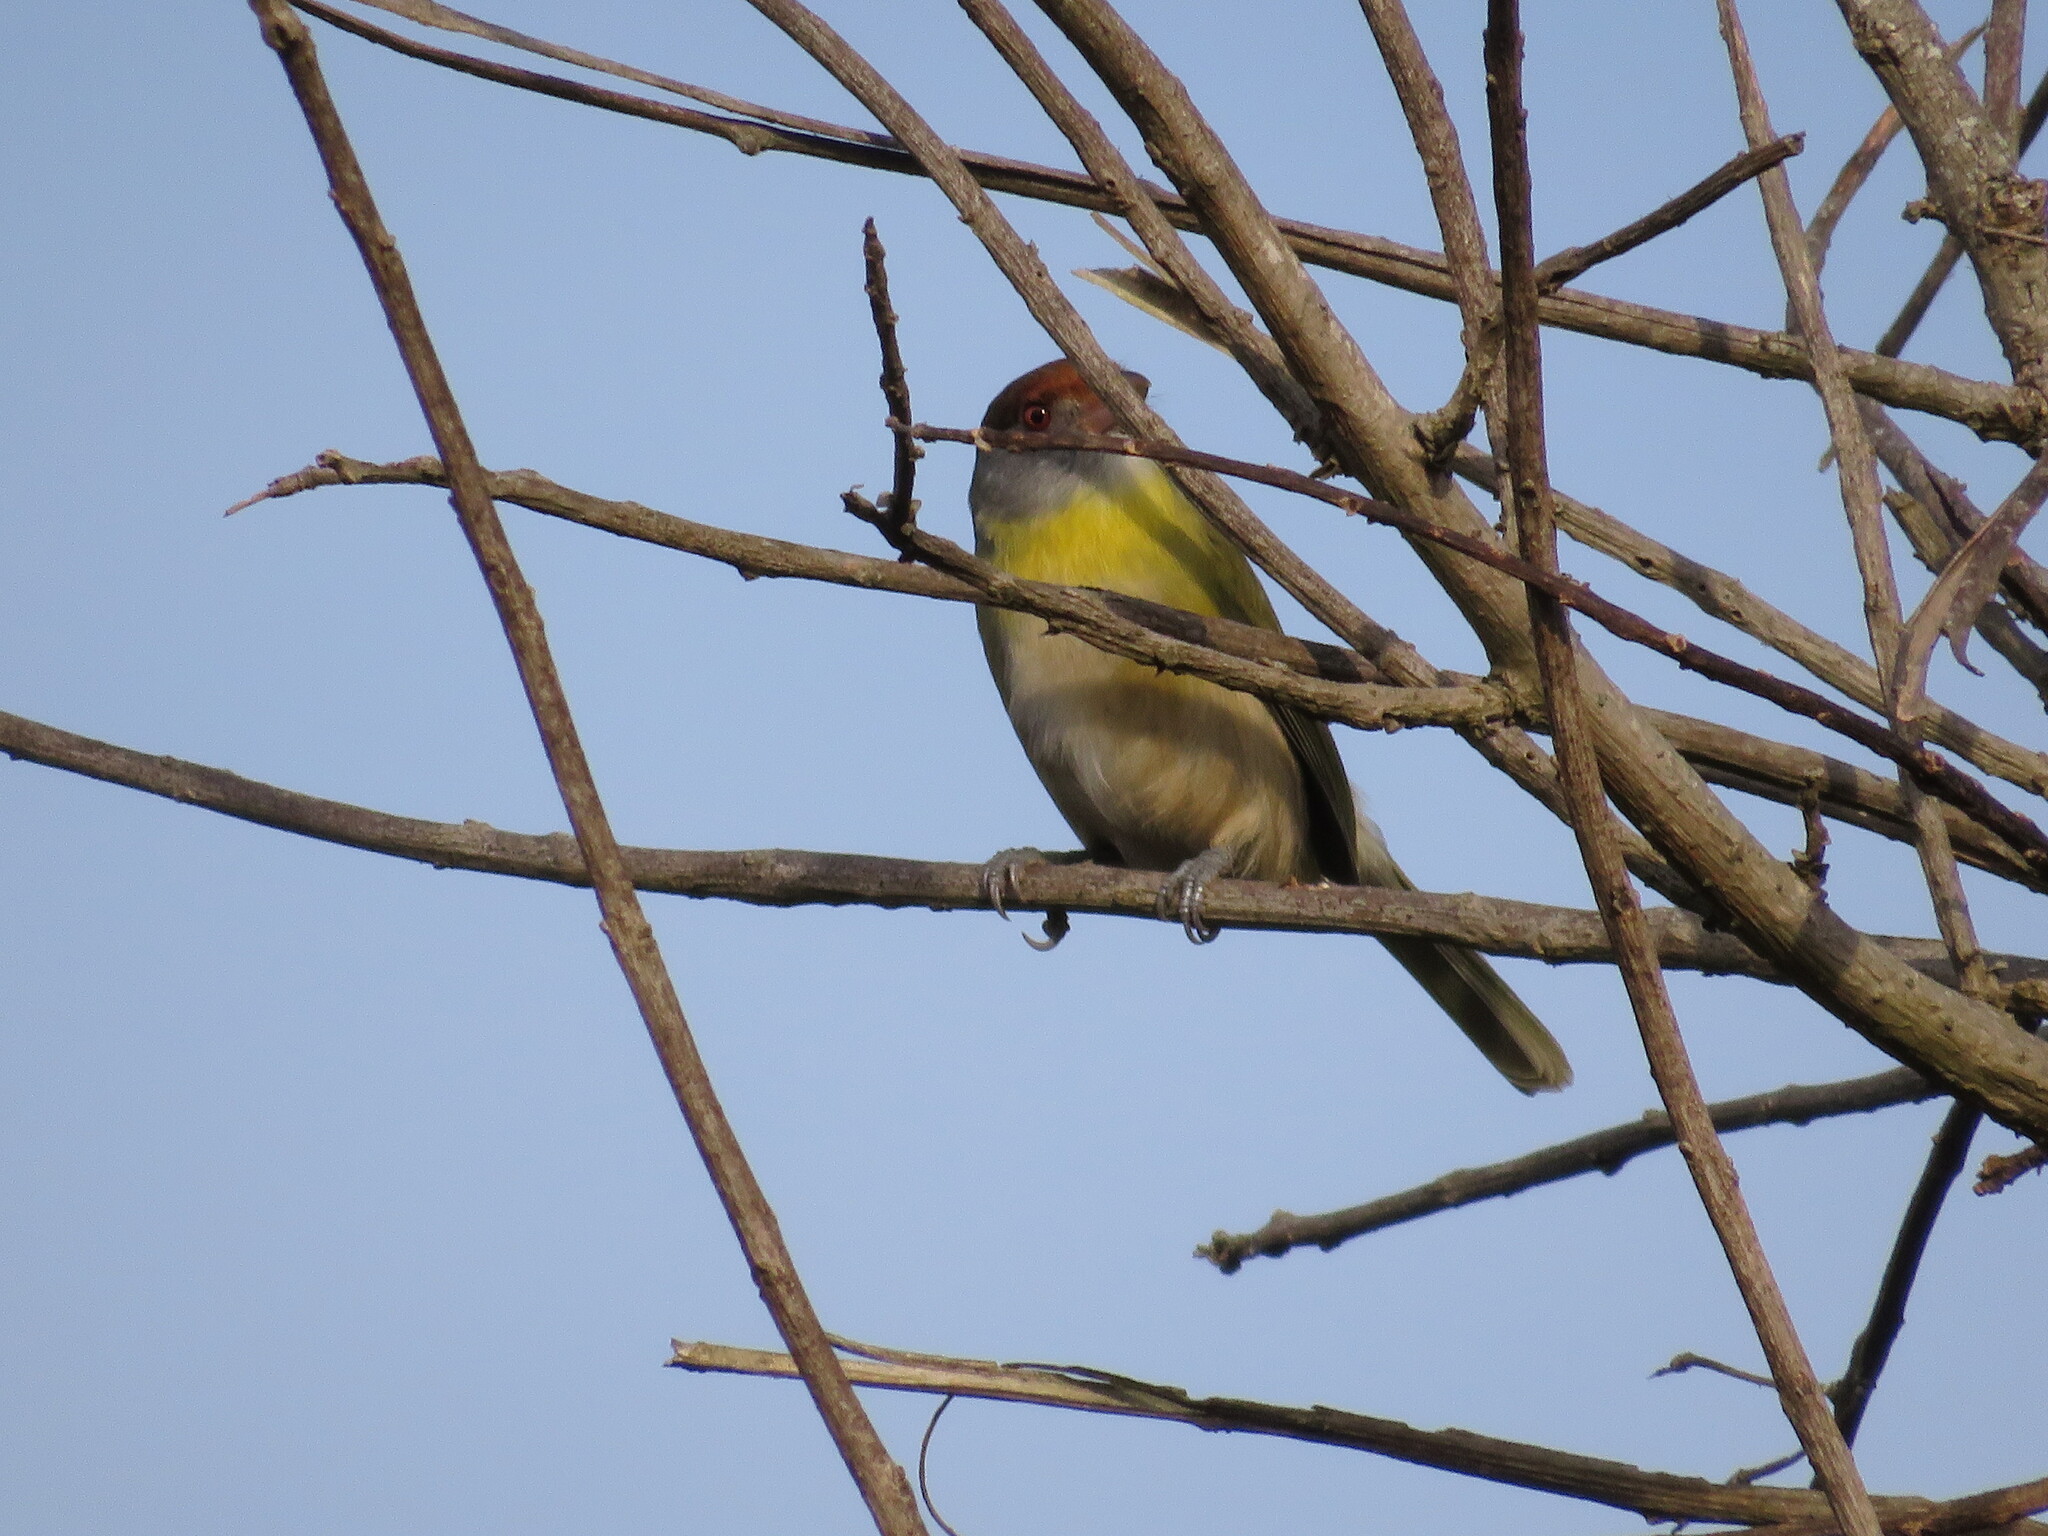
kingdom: Animalia
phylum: Chordata
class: Aves
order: Passeriformes
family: Vireonidae
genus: Cyclarhis
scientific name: Cyclarhis gujanensis
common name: Rufous-browed peppershrike
